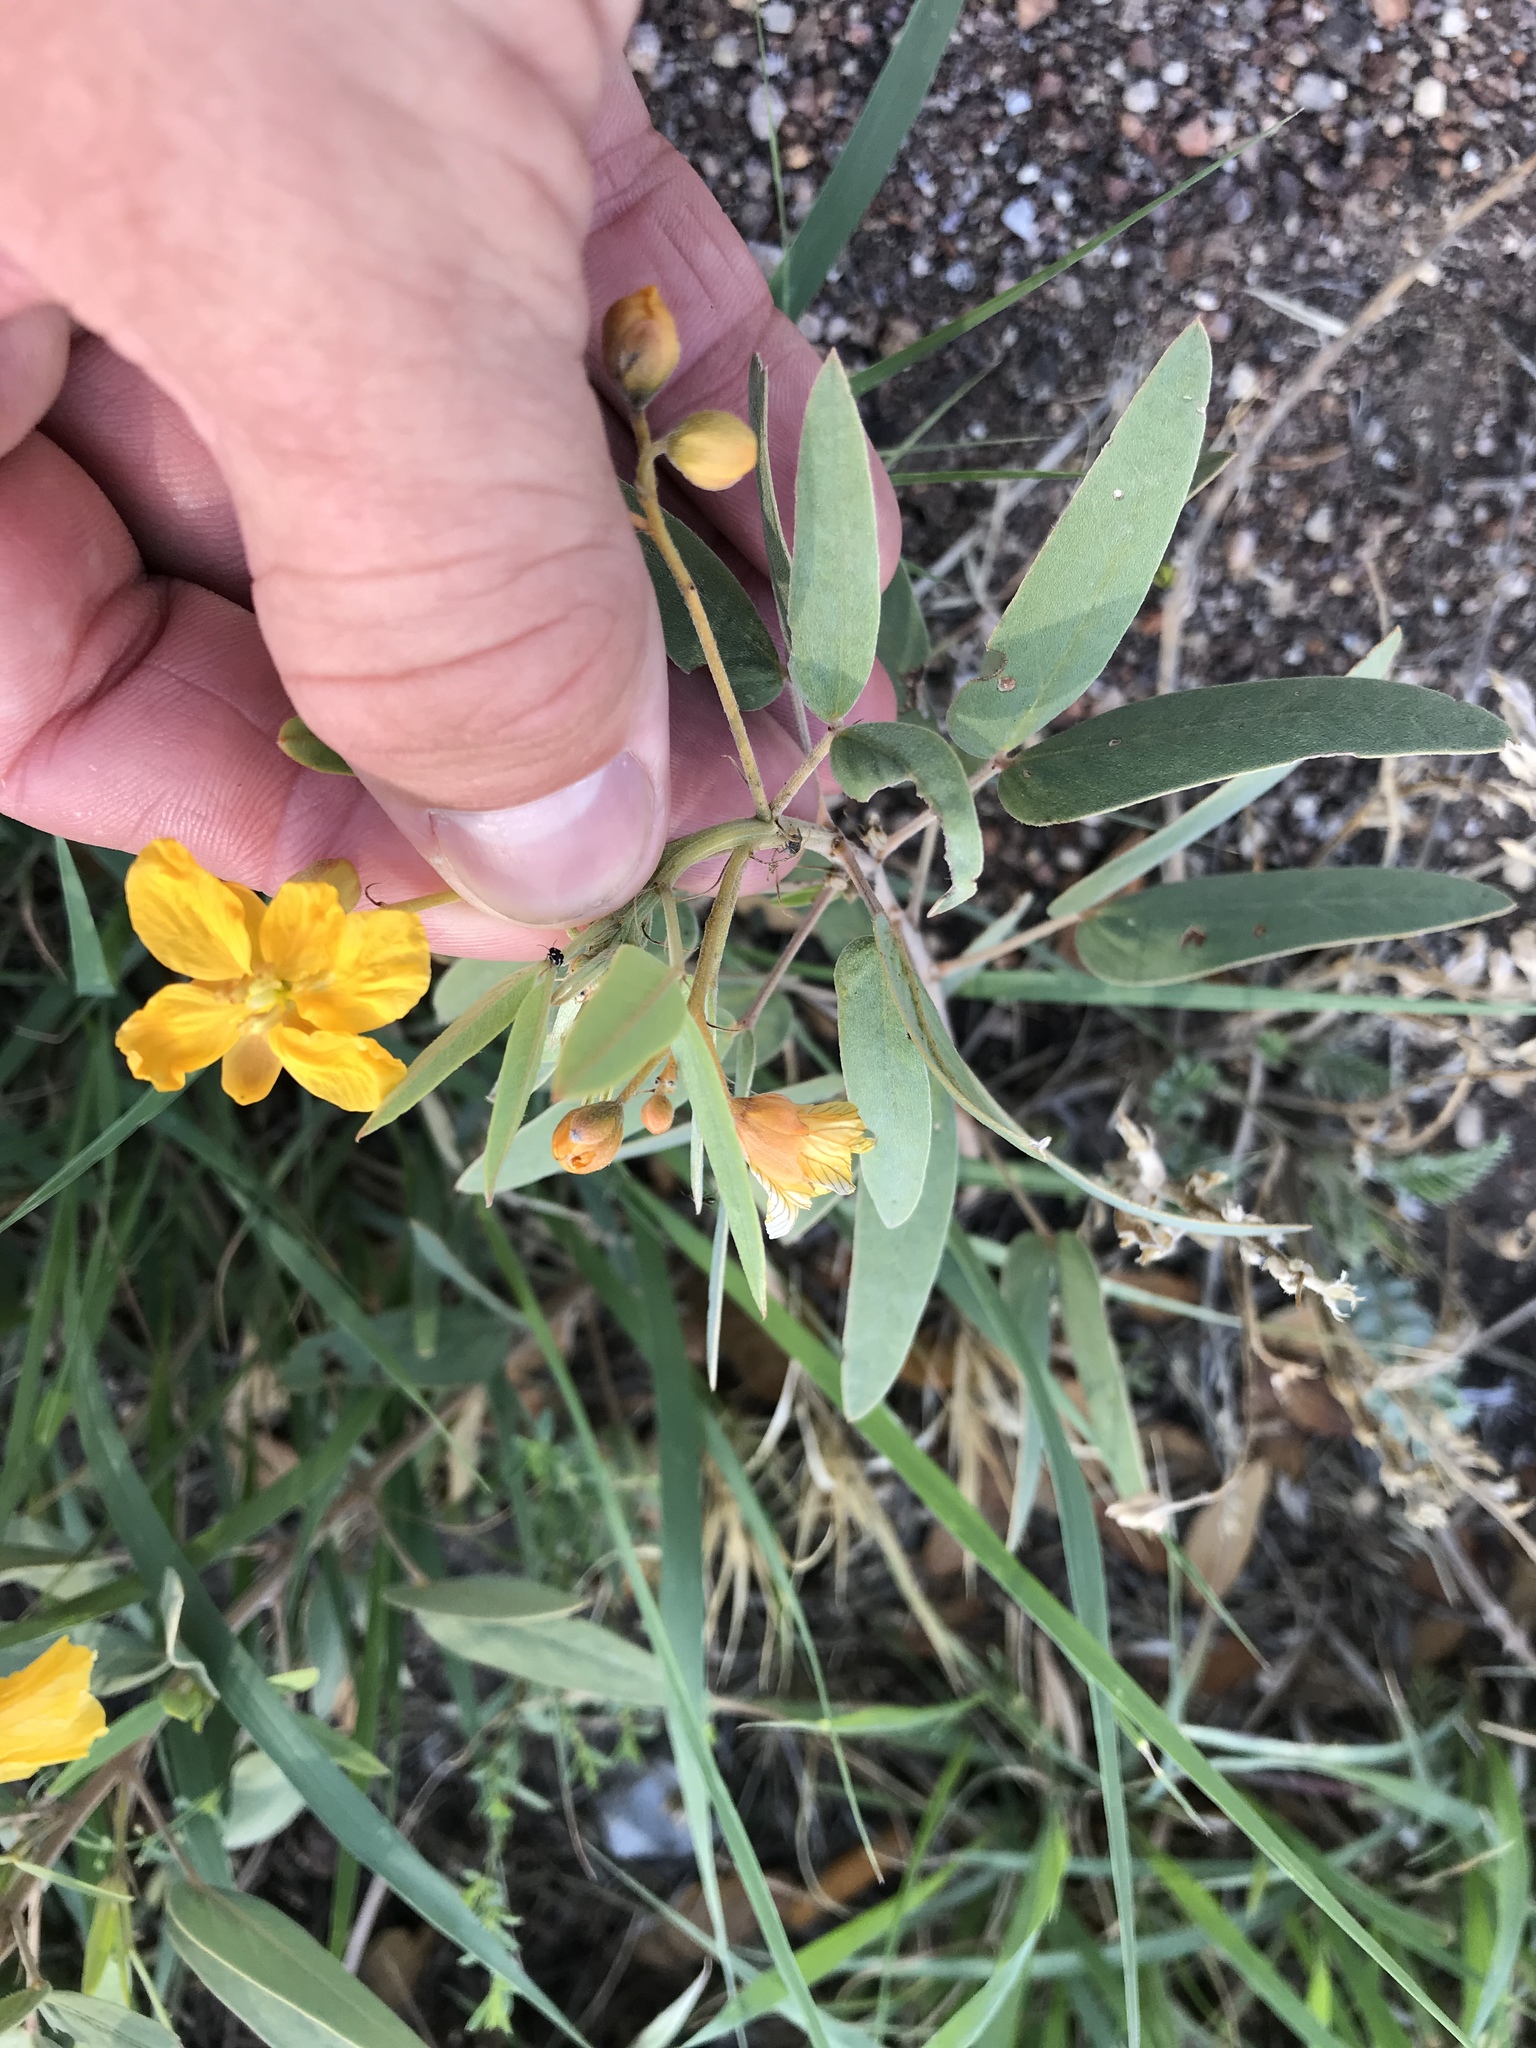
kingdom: Plantae
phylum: Tracheophyta
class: Magnoliopsida
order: Fabales
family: Fabaceae
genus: Senna
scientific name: Senna roemeriana
